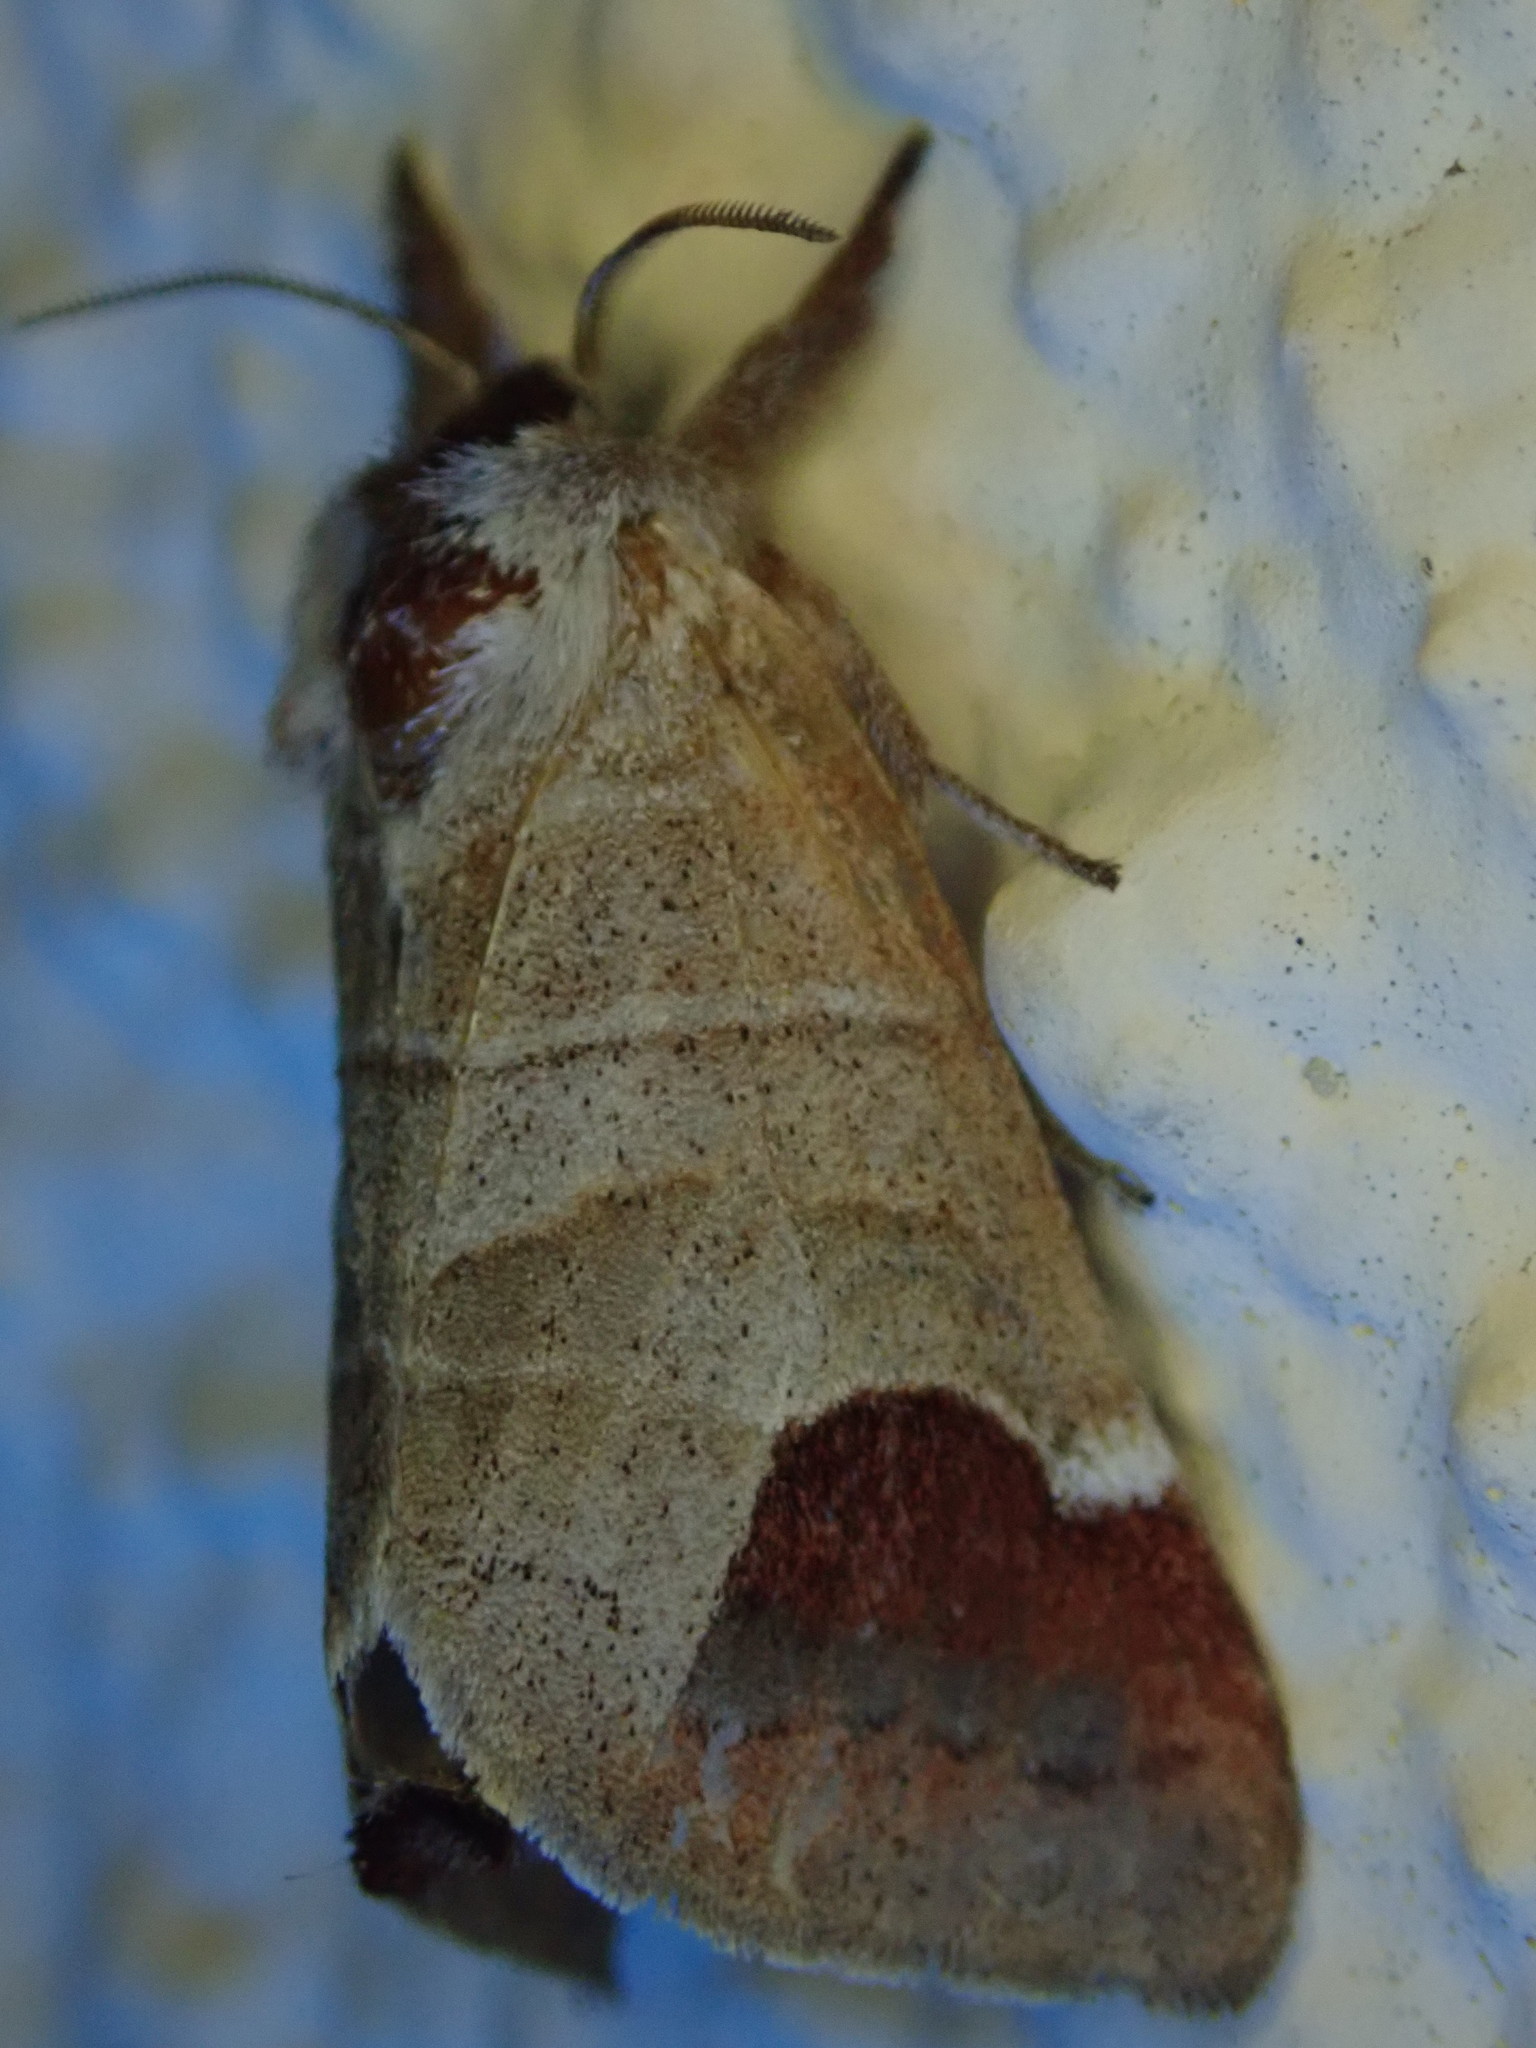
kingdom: Animalia
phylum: Arthropoda
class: Insecta
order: Lepidoptera
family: Notodontidae
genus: Clostera
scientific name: Clostera curtula
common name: Chocolate-tip
